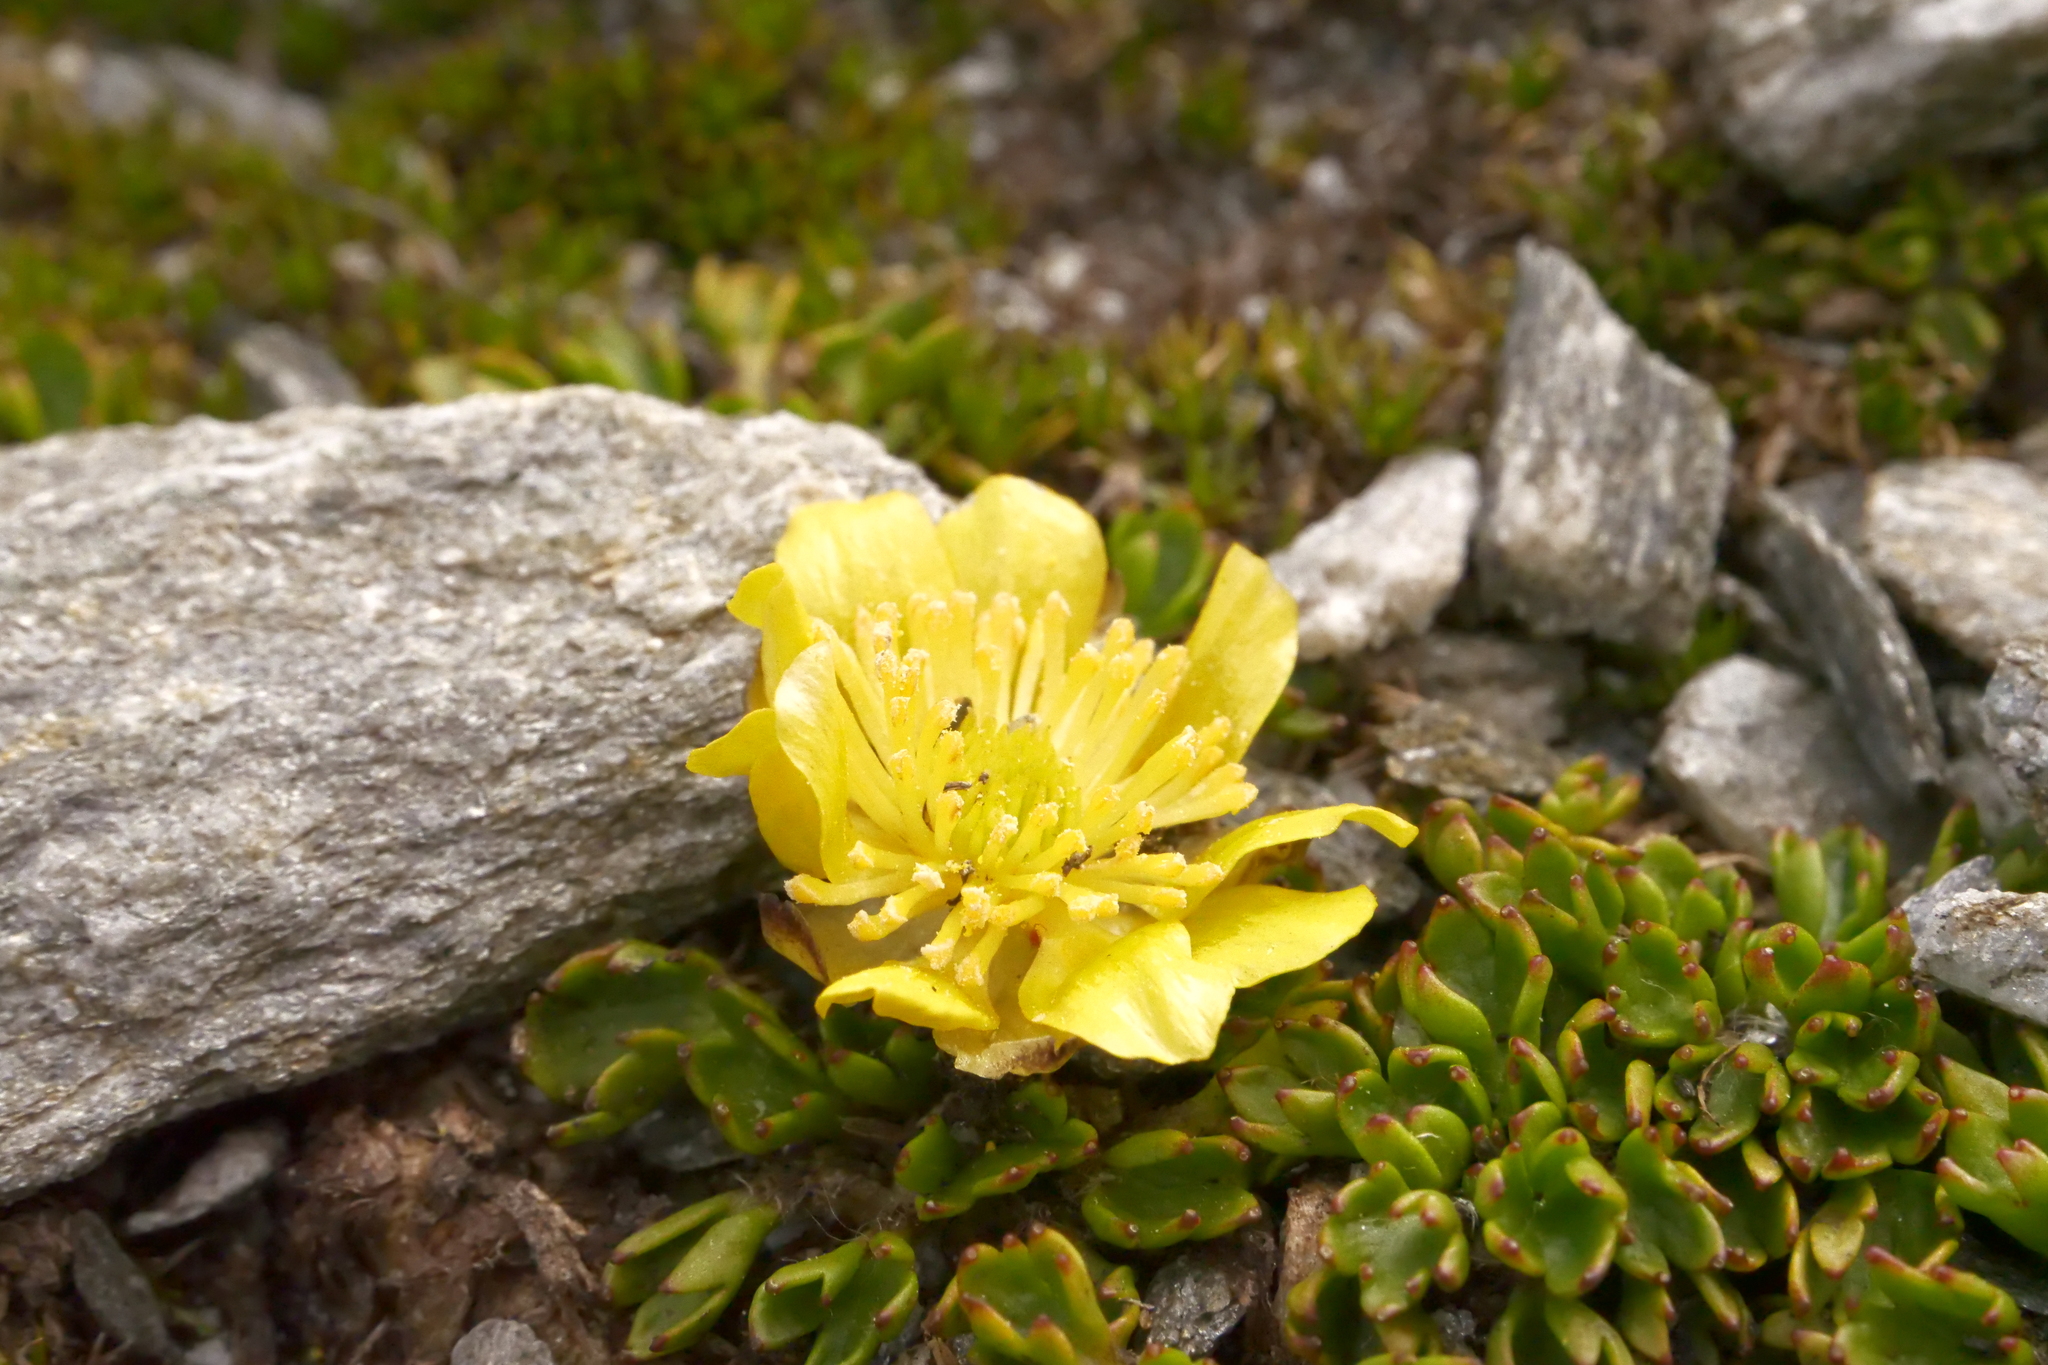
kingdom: Plantae
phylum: Tracheophyta
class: Magnoliopsida
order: Ranunculales
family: Ranunculaceae
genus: Ranunculus
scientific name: Ranunculus pachyrrhizus
